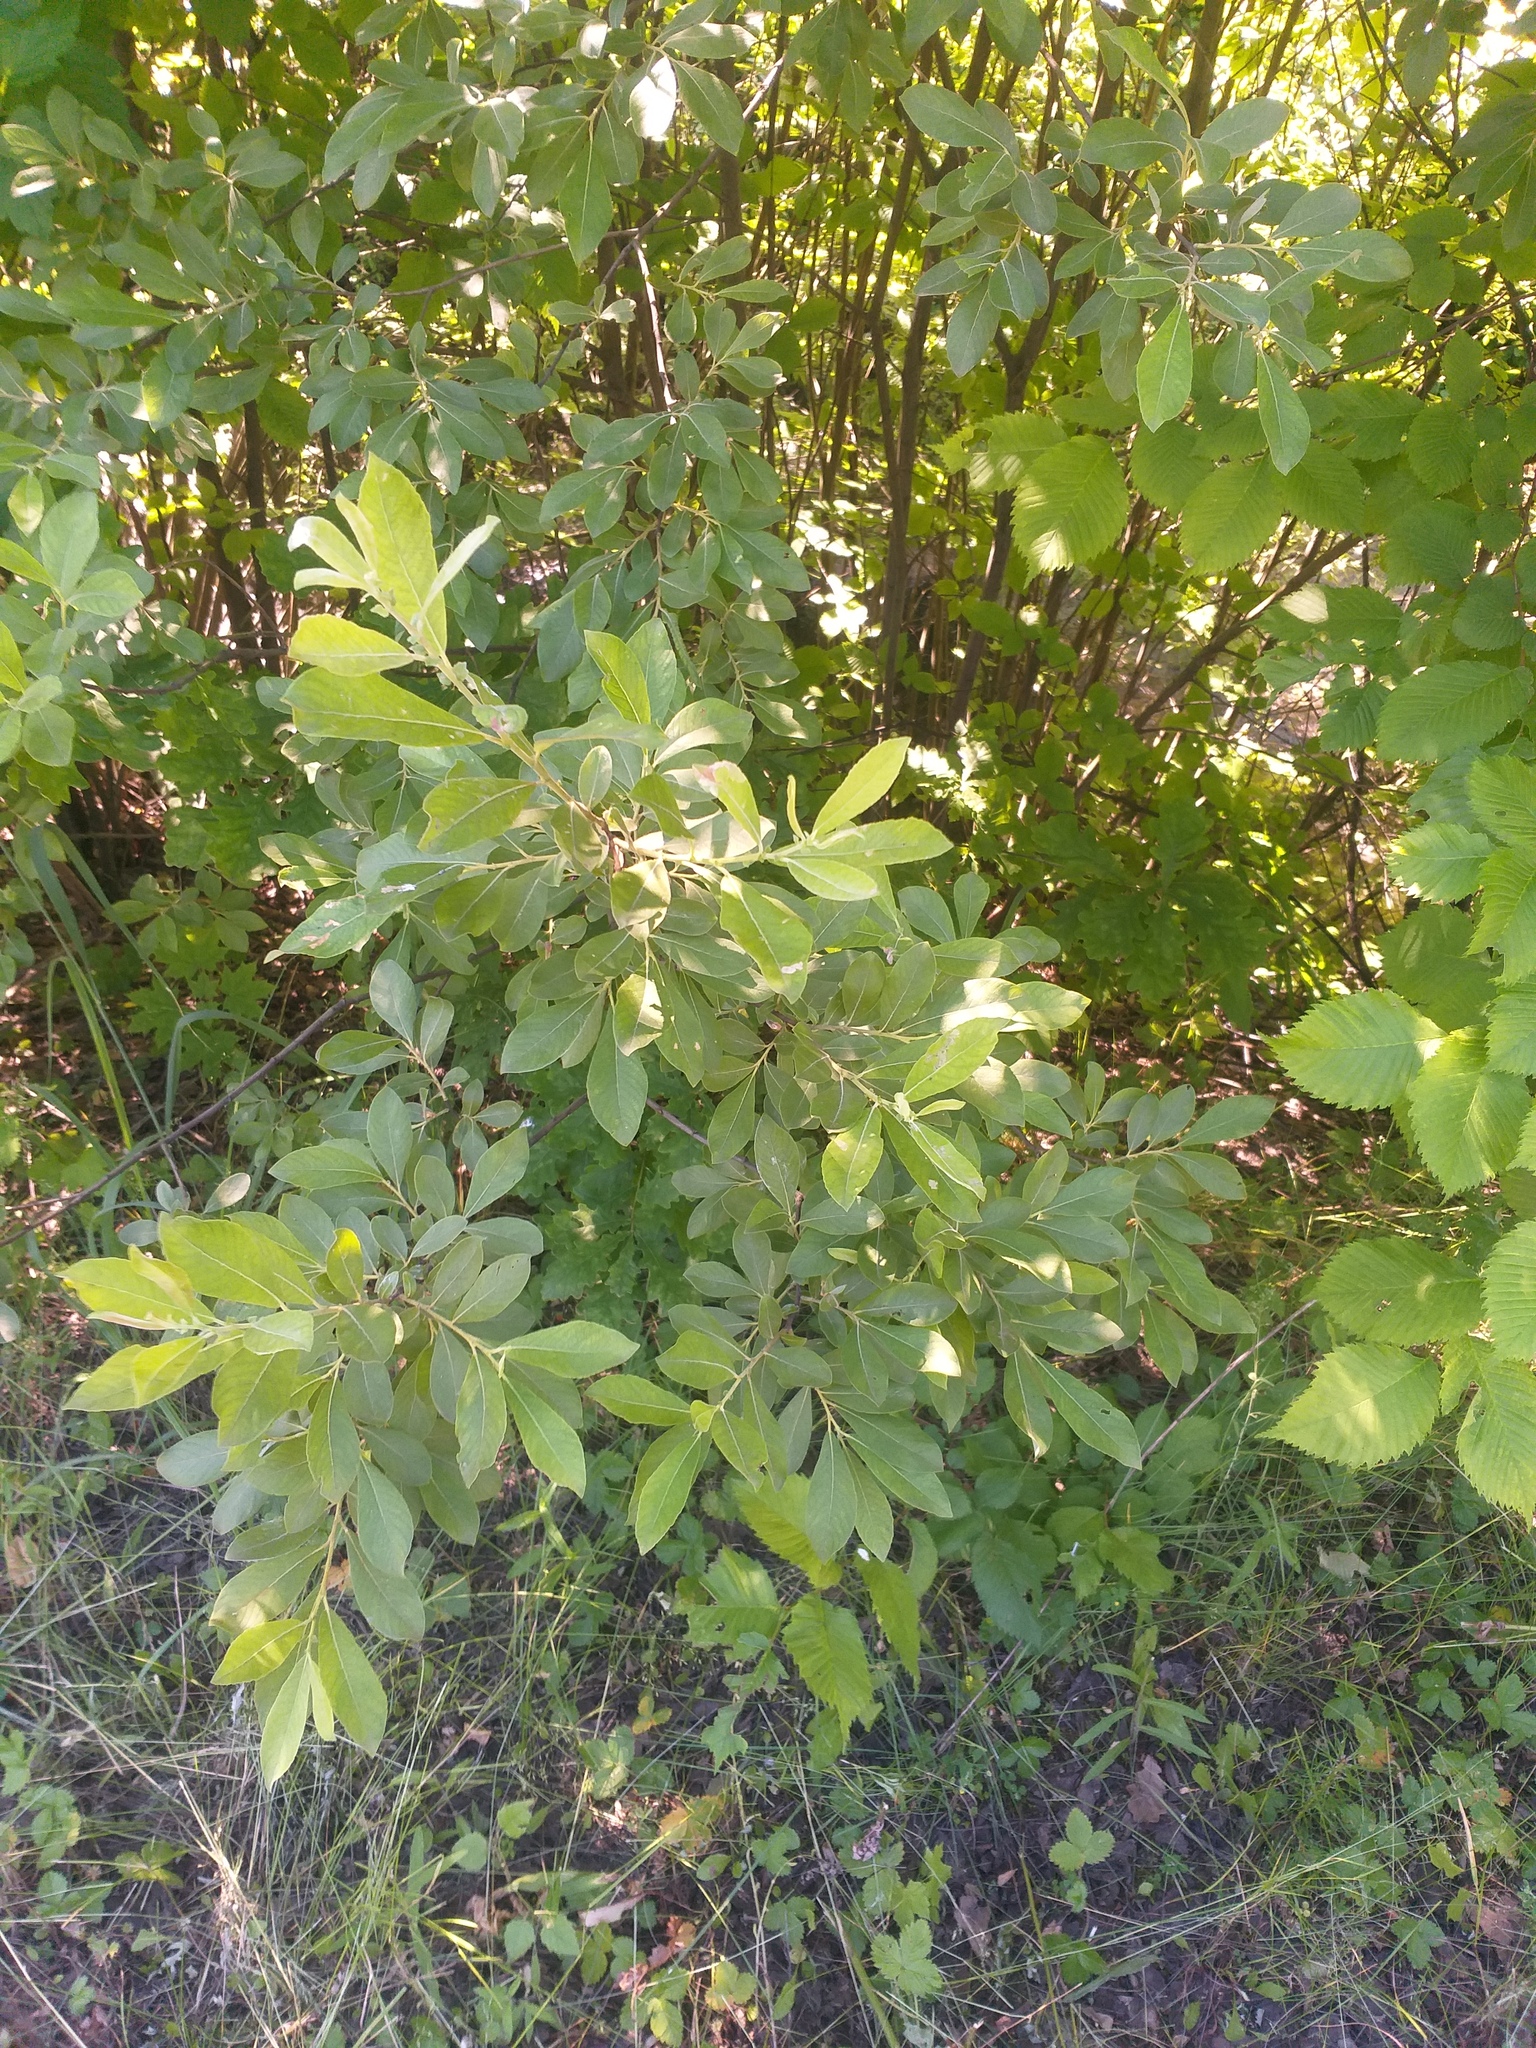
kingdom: Plantae
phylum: Tracheophyta
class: Magnoliopsida
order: Malpighiales
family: Salicaceae
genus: Salix
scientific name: Salix cinerea
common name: Common sallow
